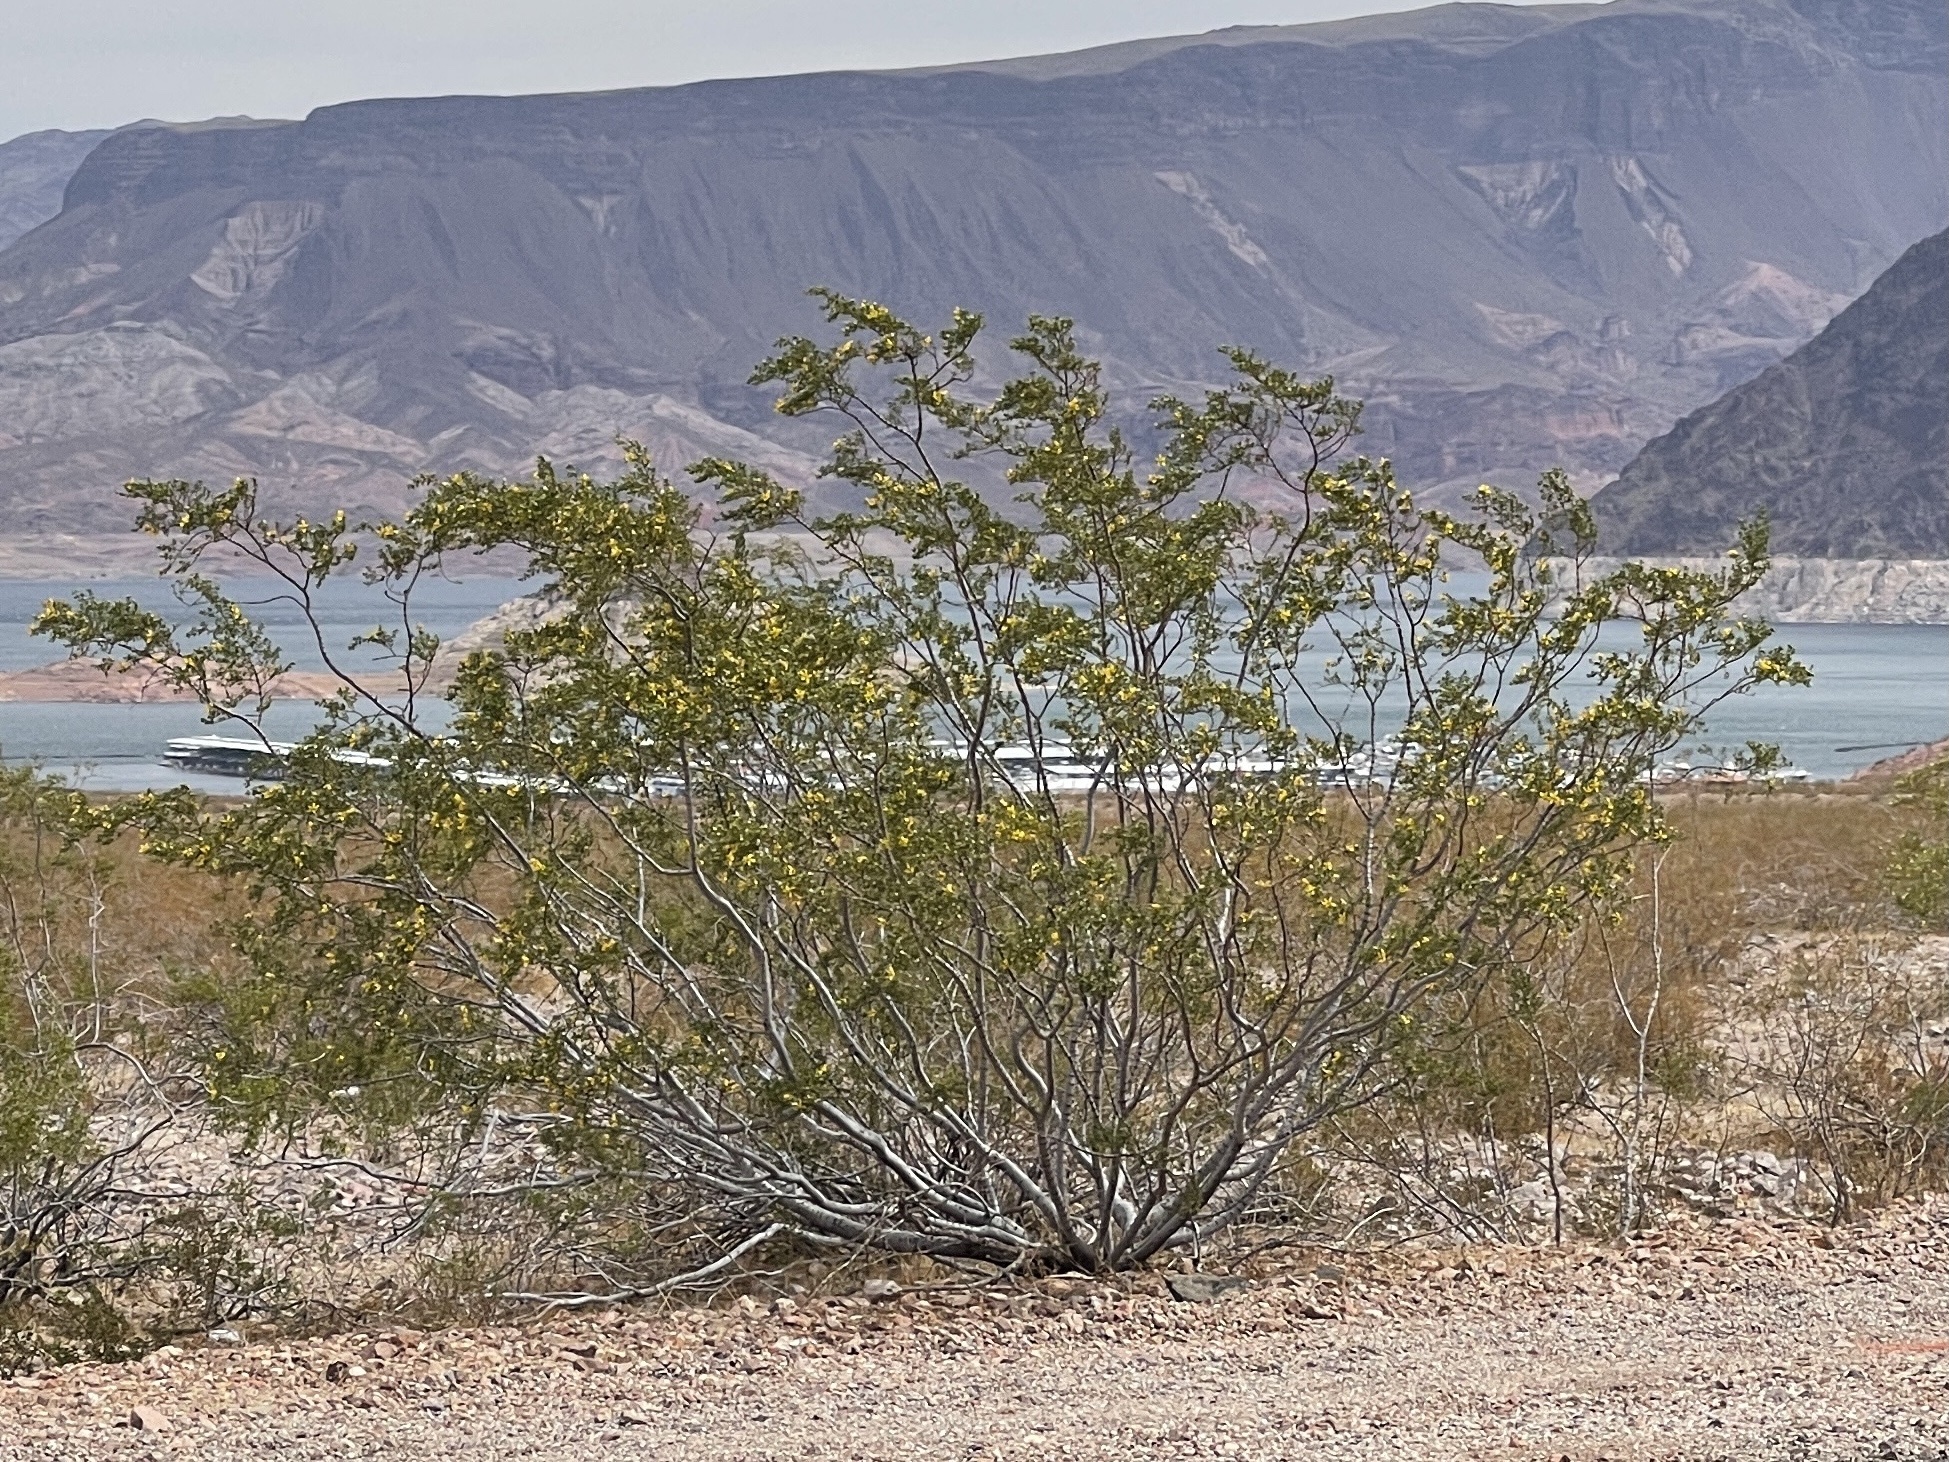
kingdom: Plantae
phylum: Tracheophyta
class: Magnoliopsida
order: Zygophyllales
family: Zygophyllaceae
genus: Larrea
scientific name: Larrea tridentata
